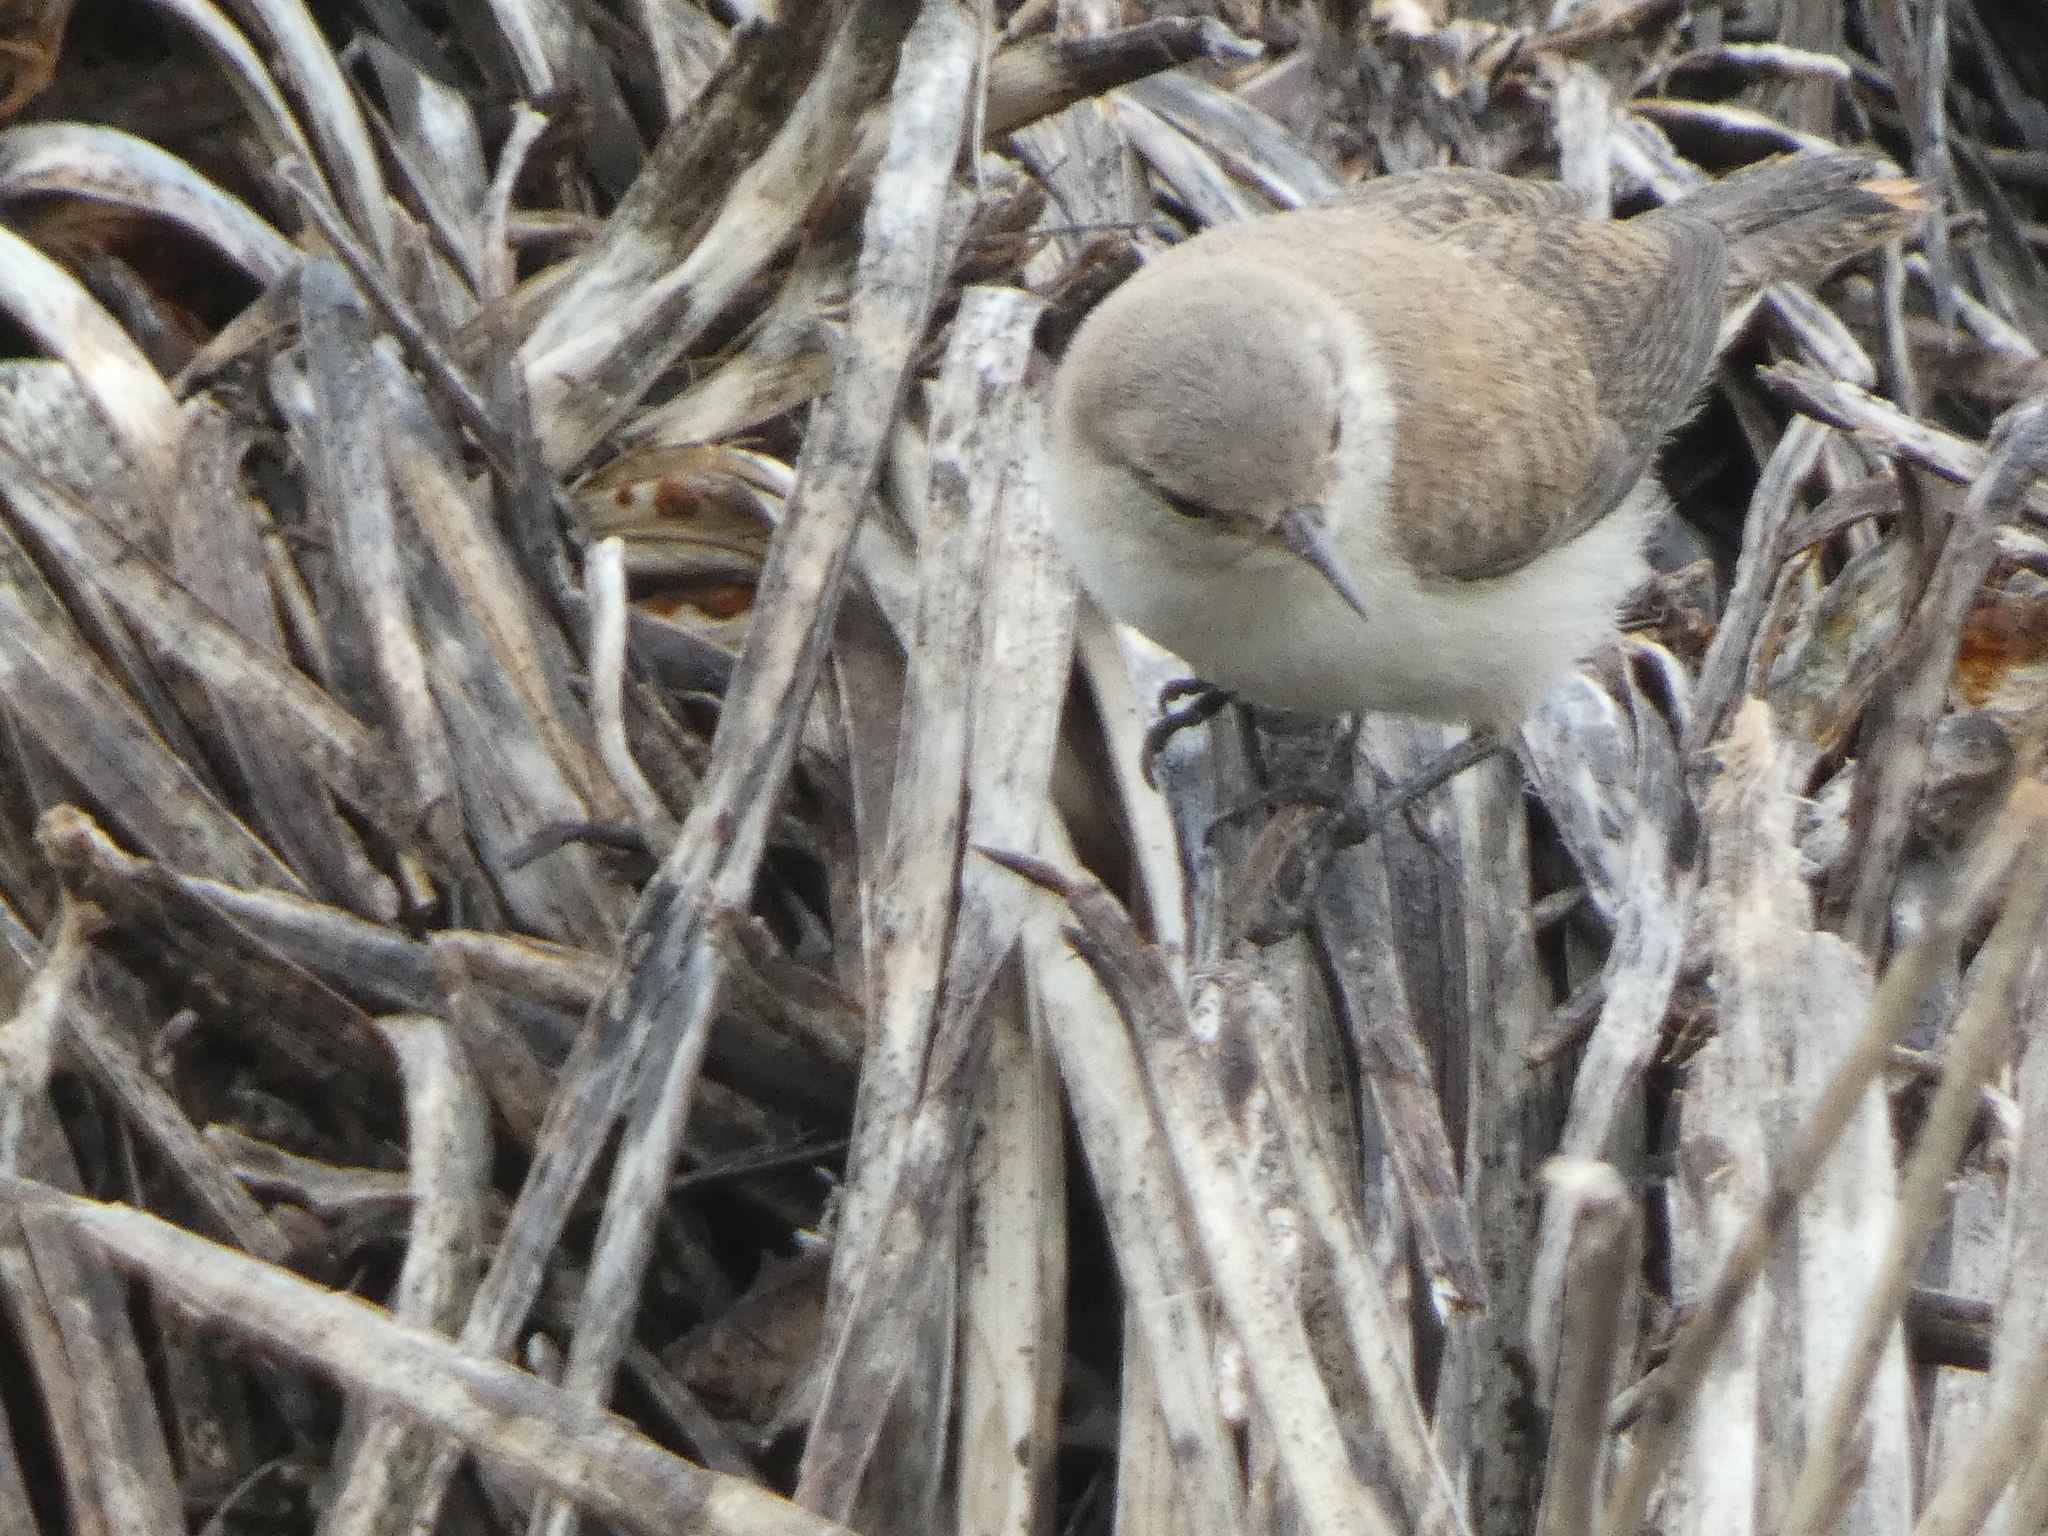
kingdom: Animalia
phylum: Chordata
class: Aves
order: Passeriformes
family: Troglodytidae
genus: Salpinctes
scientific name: Salpinctes obsoletus
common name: Rock wren
